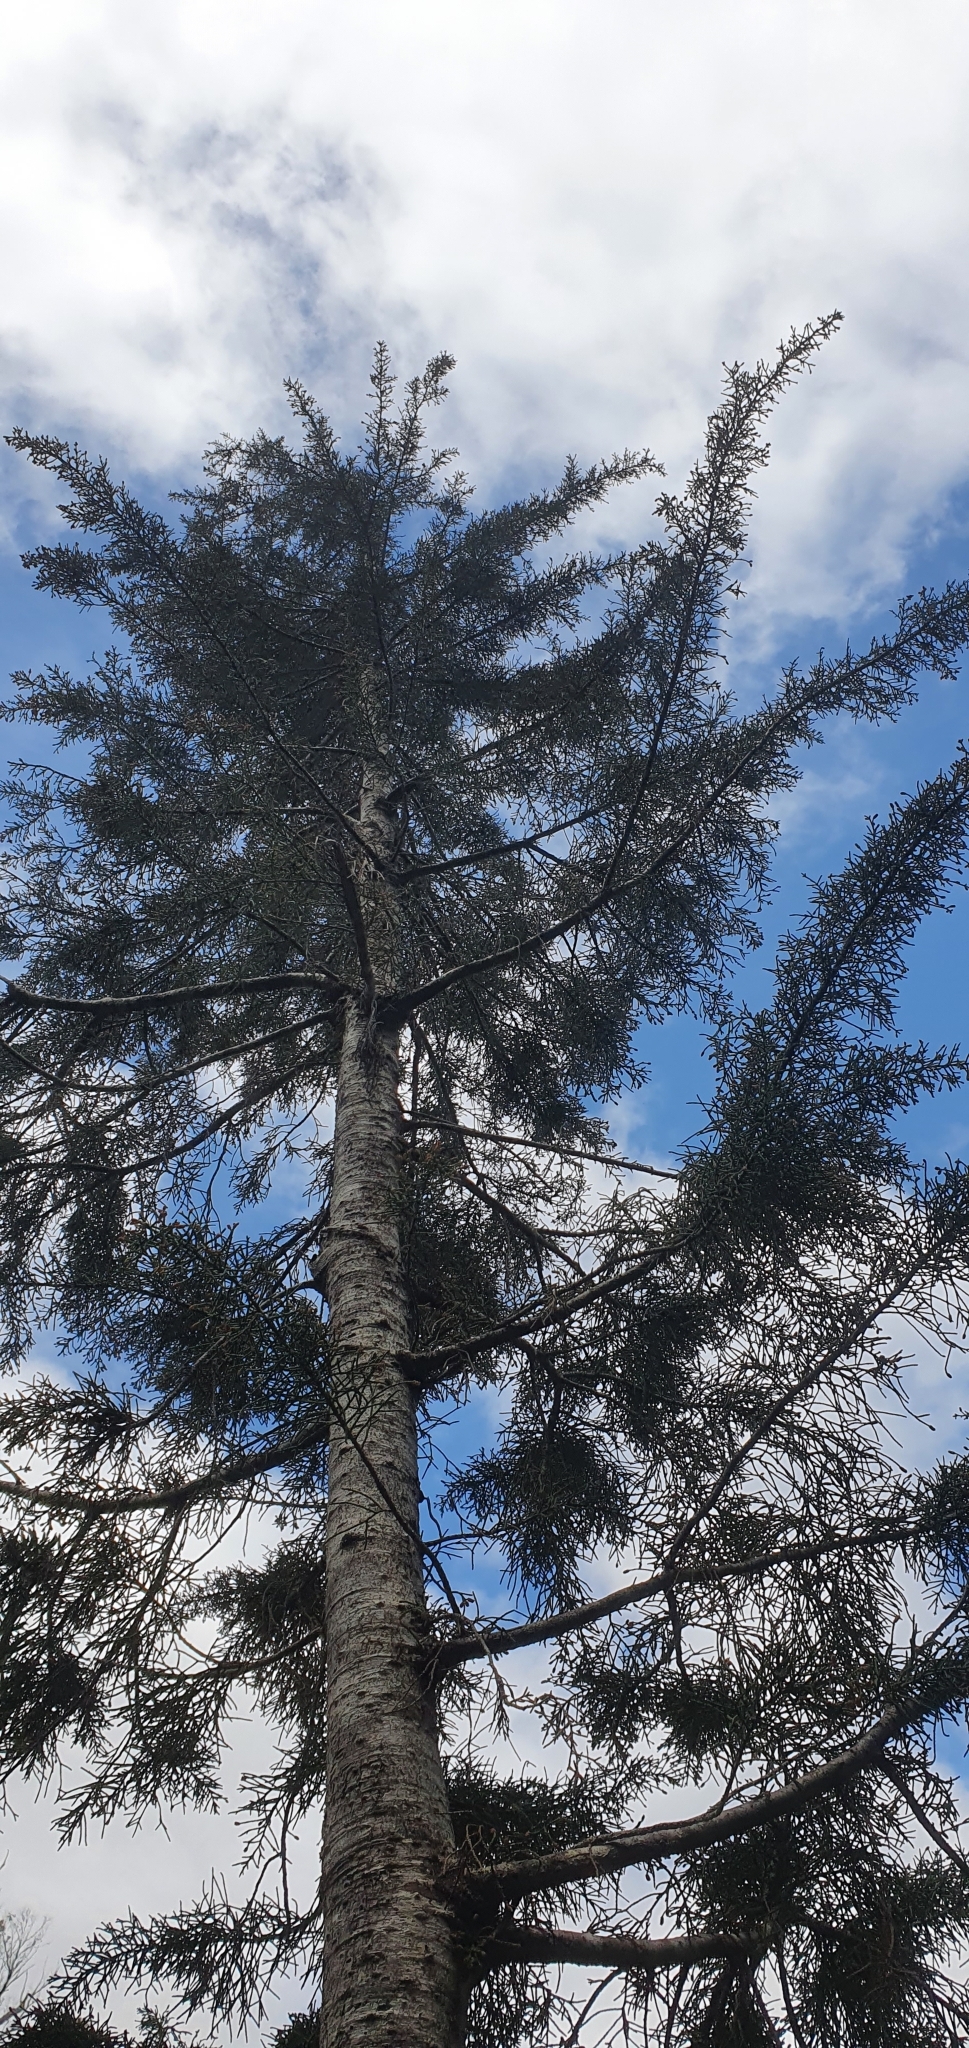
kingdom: Plantae
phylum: Tracheophyta
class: Pinopsida
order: Pinales
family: Podocarpaceae
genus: Lagarostrobos
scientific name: Lagarostrobos franklinii
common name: Huon pine
